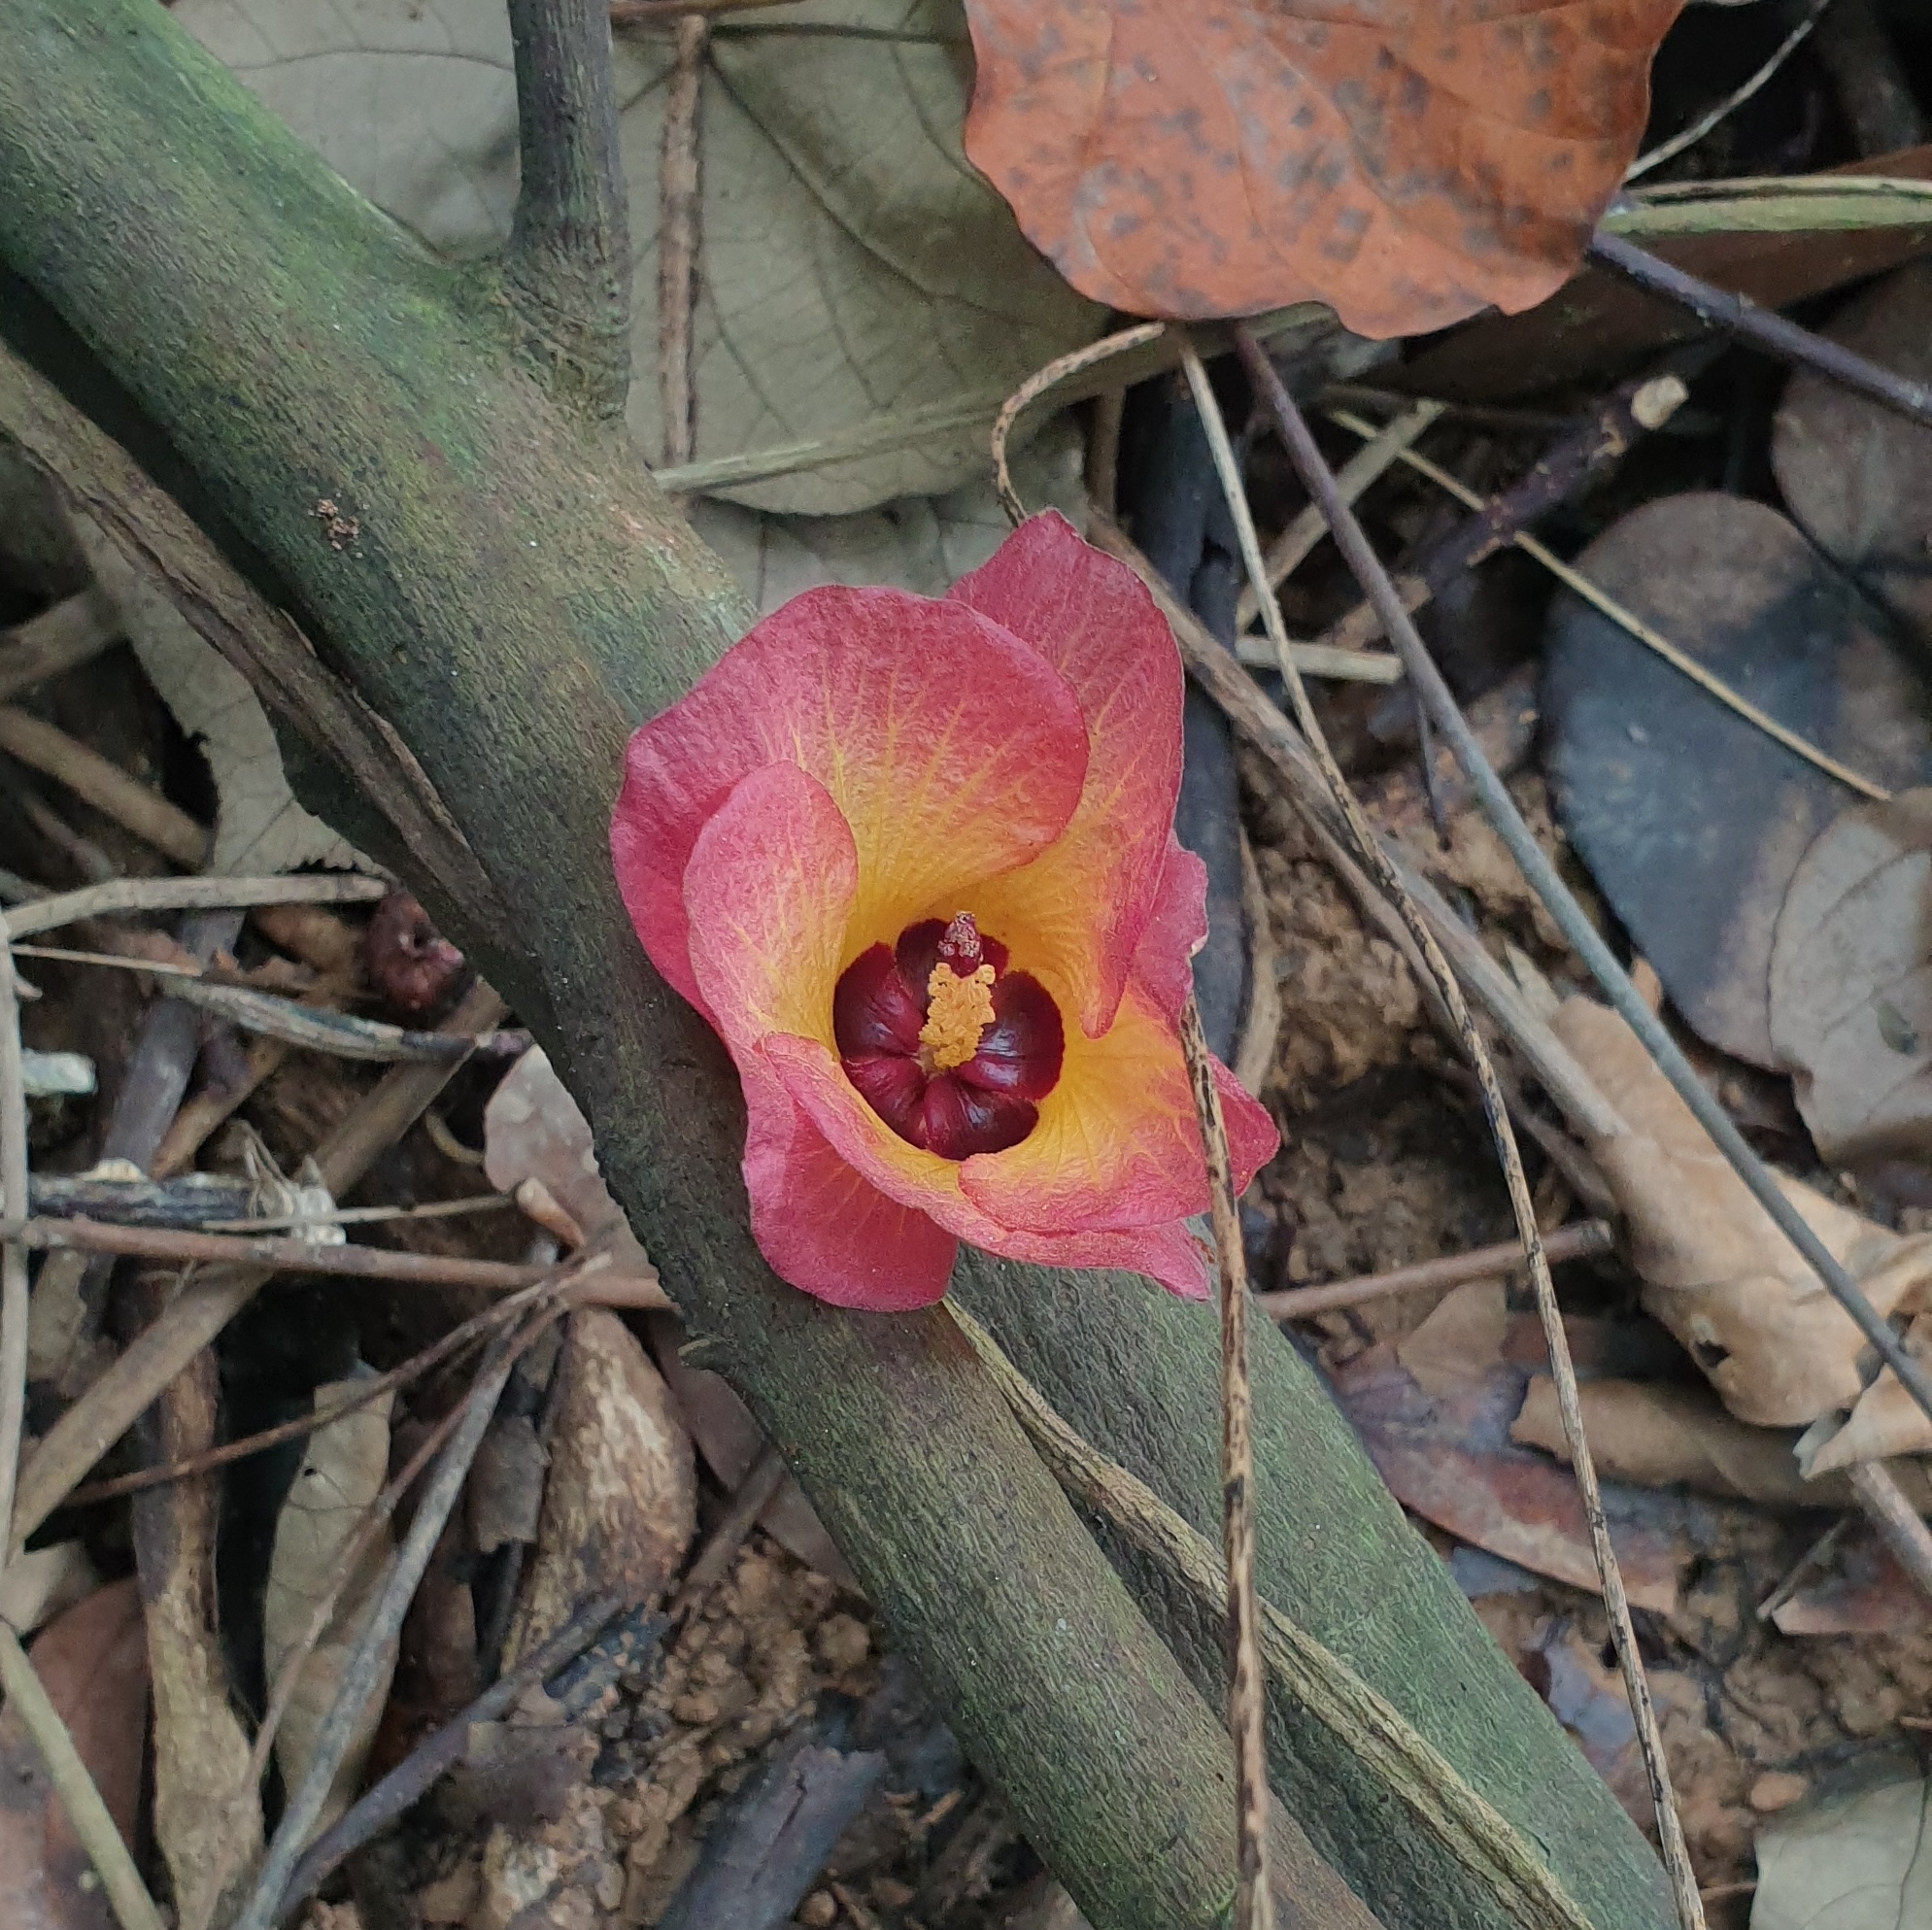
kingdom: Plantae
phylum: Tracheophyta
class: Magnoliopsida
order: Malvales
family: Malvaceae
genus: Talipariti
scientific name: Talipariti tiliaceum
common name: Sea hibiscus
